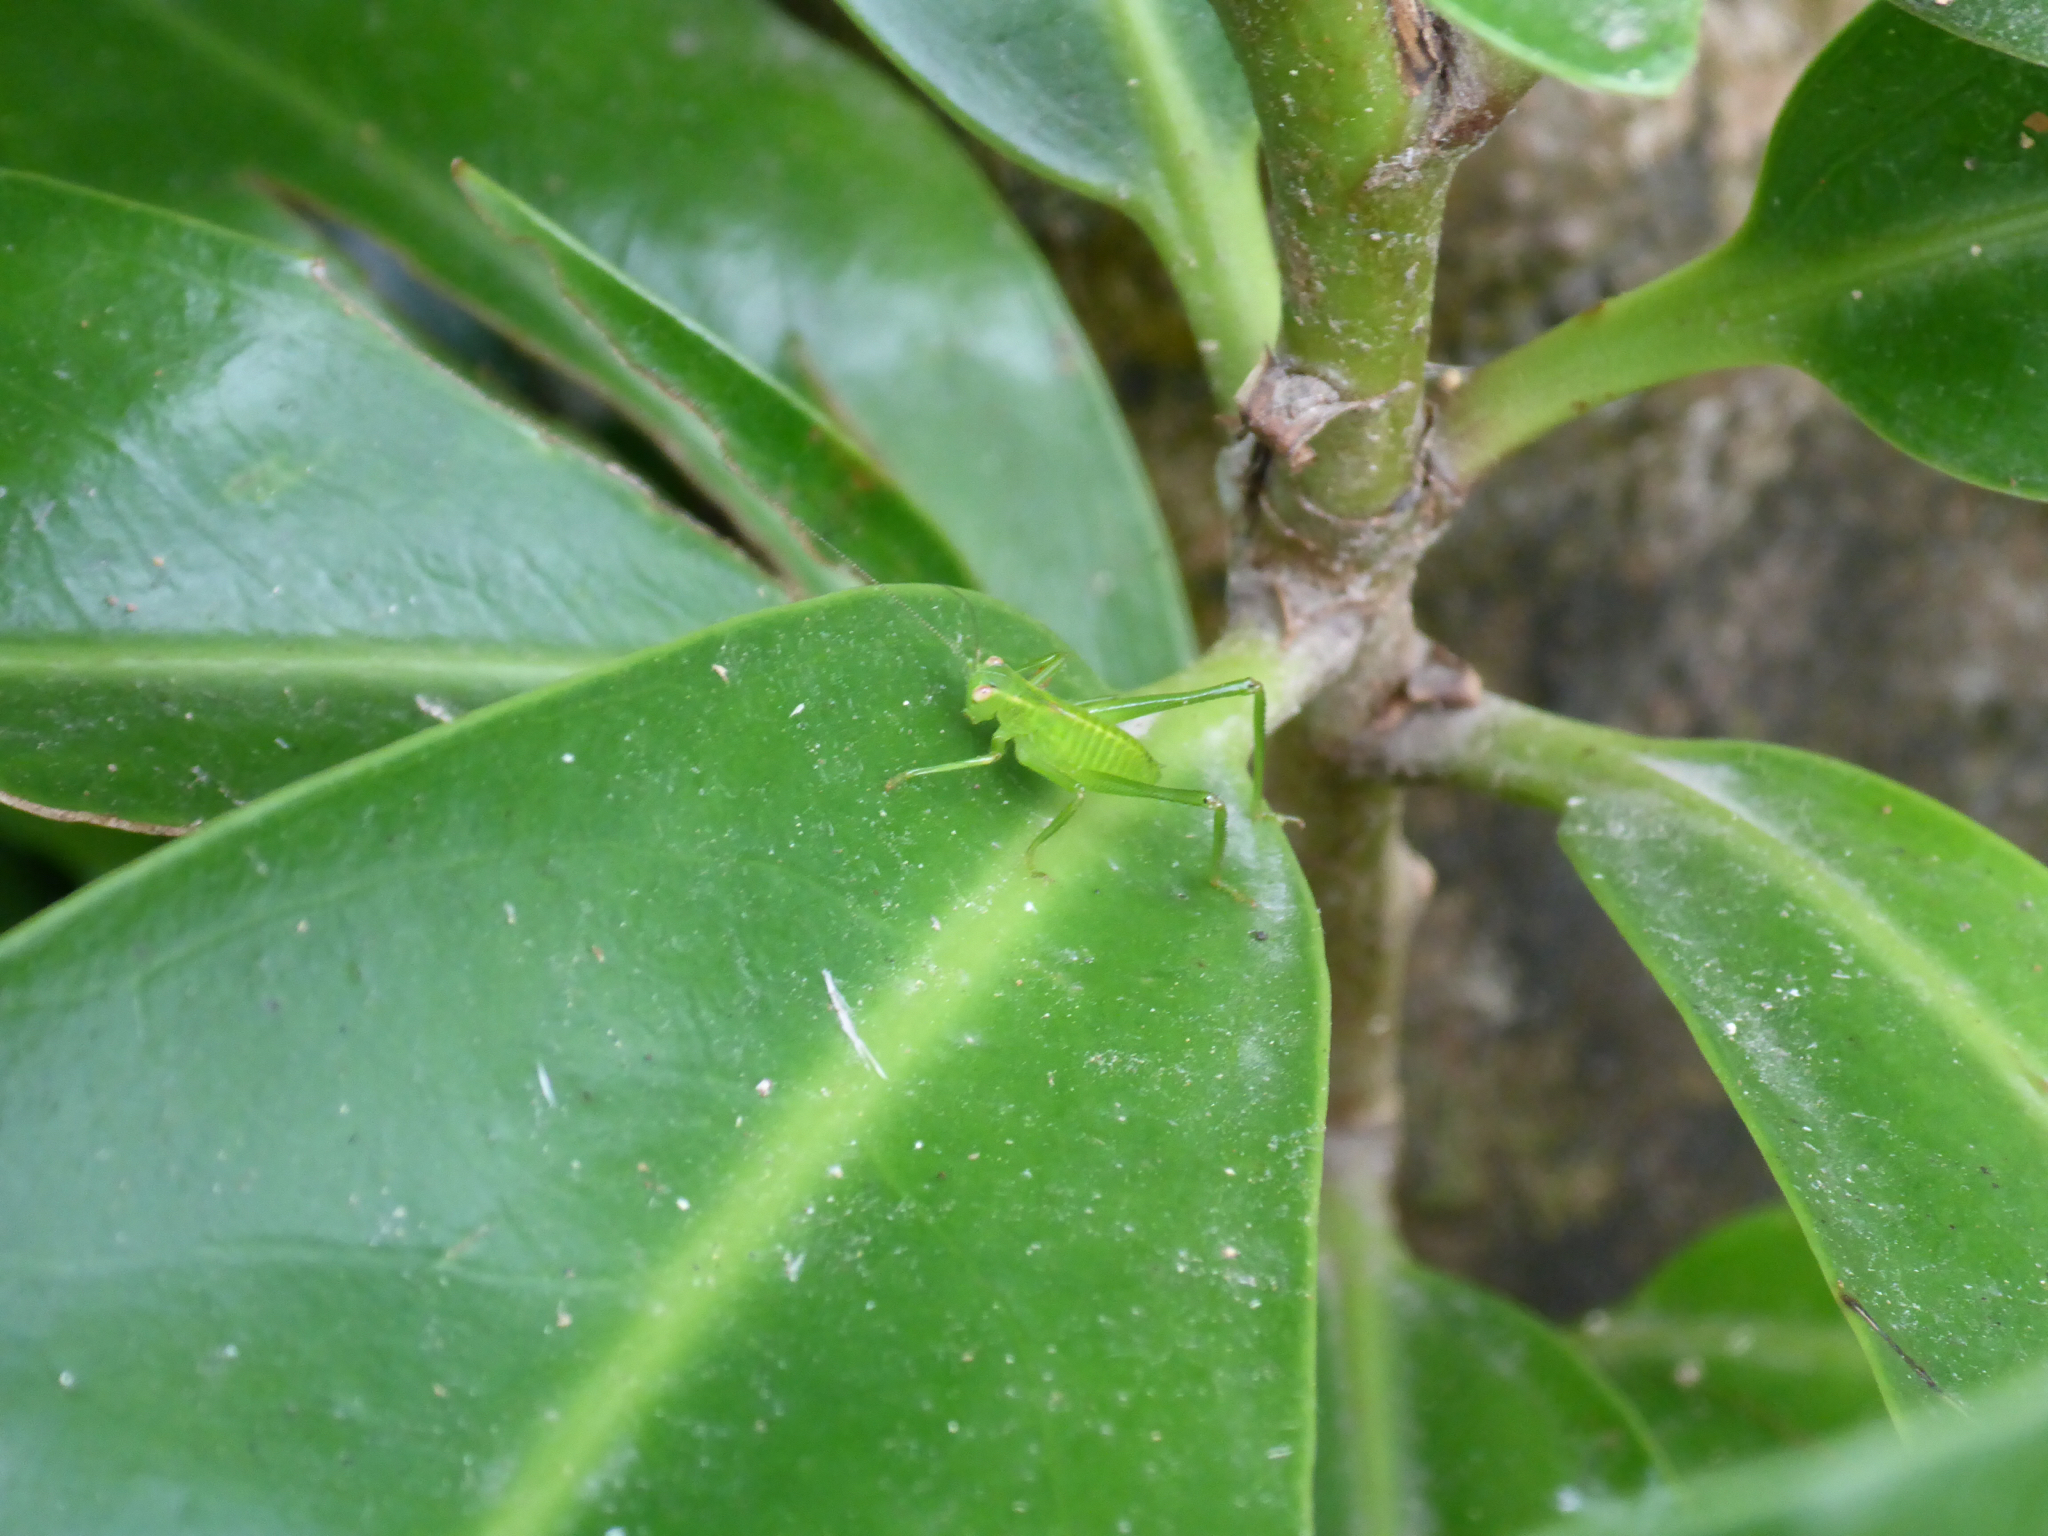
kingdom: Animalia
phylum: Arthropoda
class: Insecta
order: Orthoptera
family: Tettigoniidae
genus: Caedicia
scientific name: Caedicia simplex
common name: Common garden katydid
